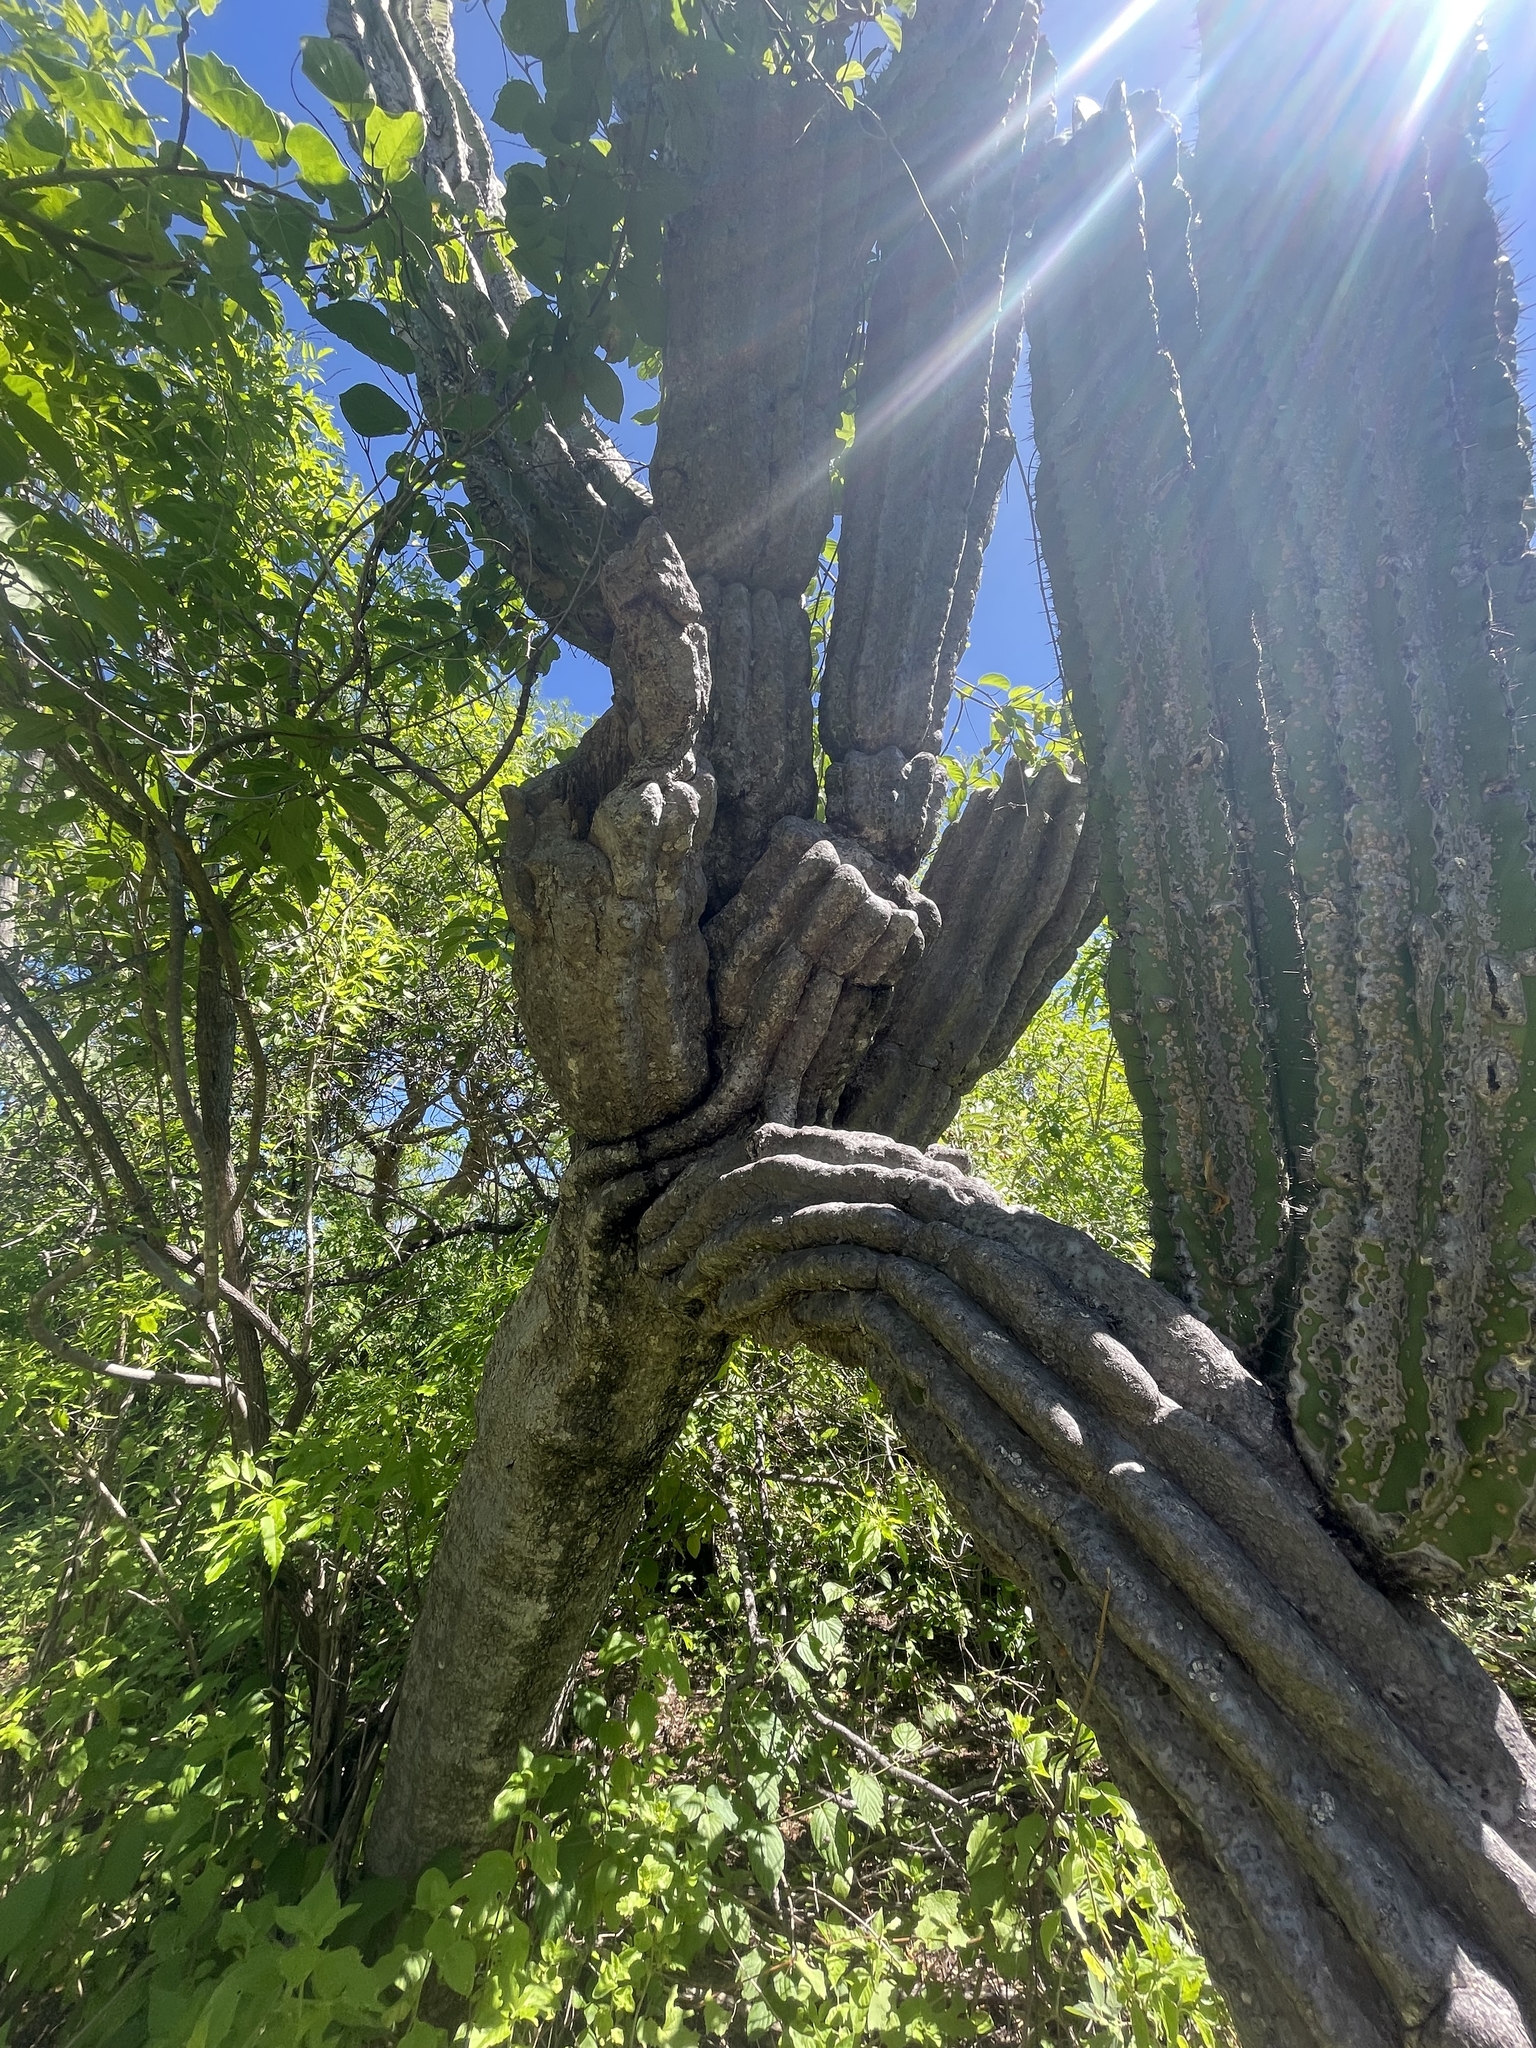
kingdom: Plantae
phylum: Tracheophyta
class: Magnoliopsida
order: Caryophyllales
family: Cactaceae
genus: Pachycereus
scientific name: Pachycereus pringlei
